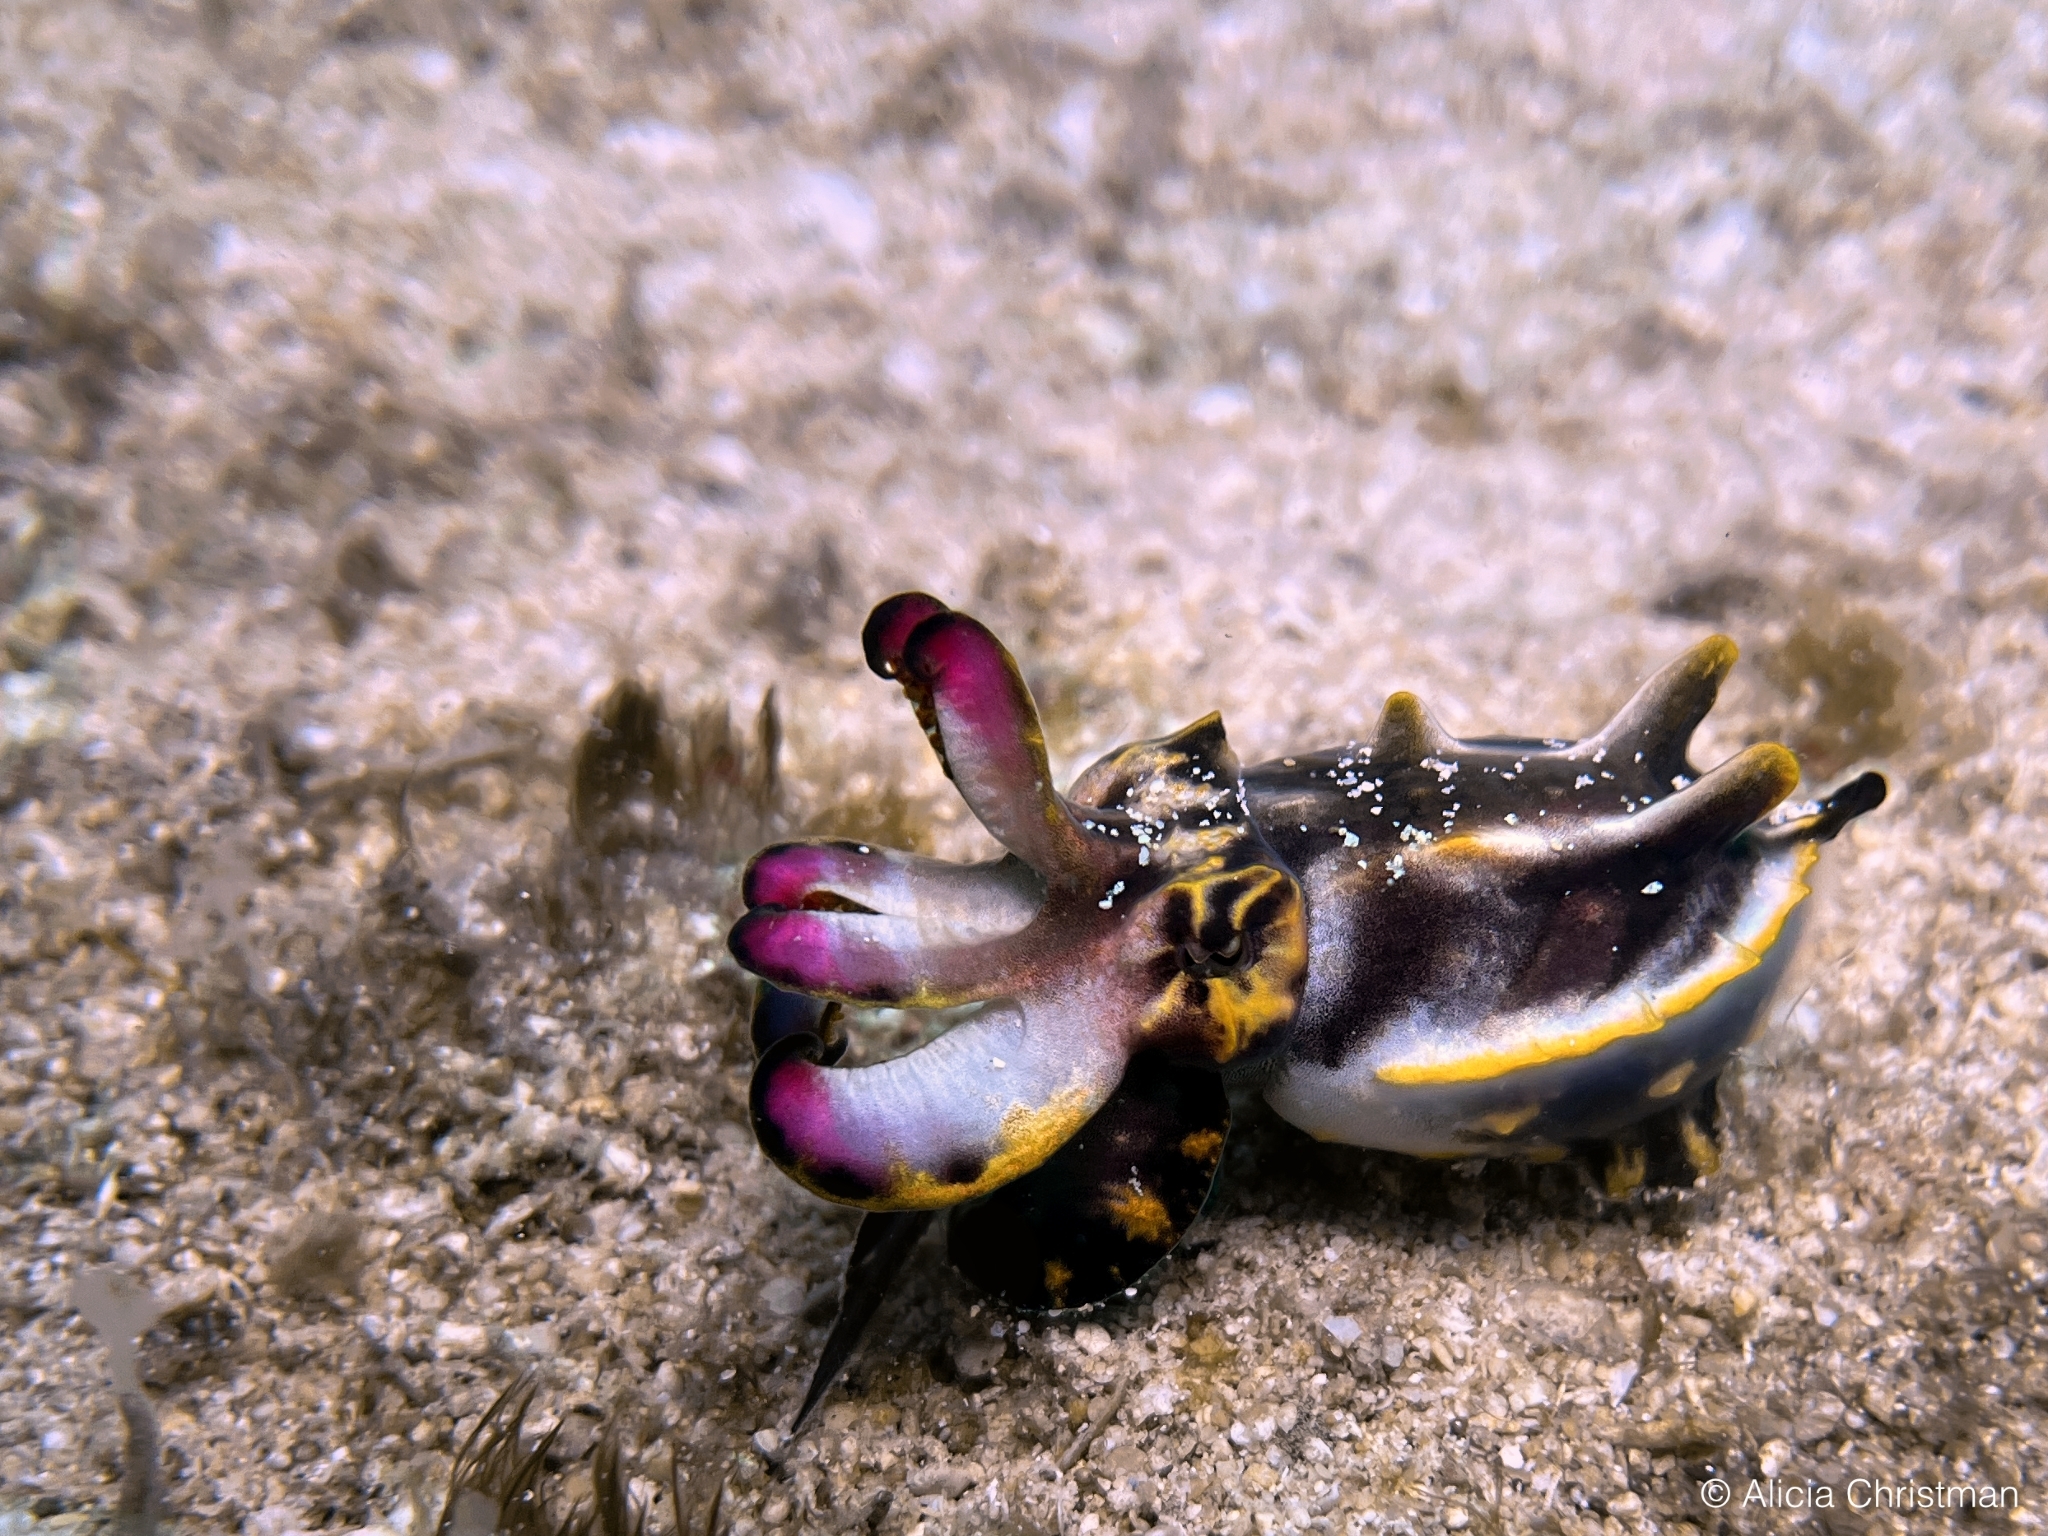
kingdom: Animalia
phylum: Mollusca
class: Cephalopoda
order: Sepiida
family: Sepiidae
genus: Ascarosepion
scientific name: Ascarosepion pfefferi
